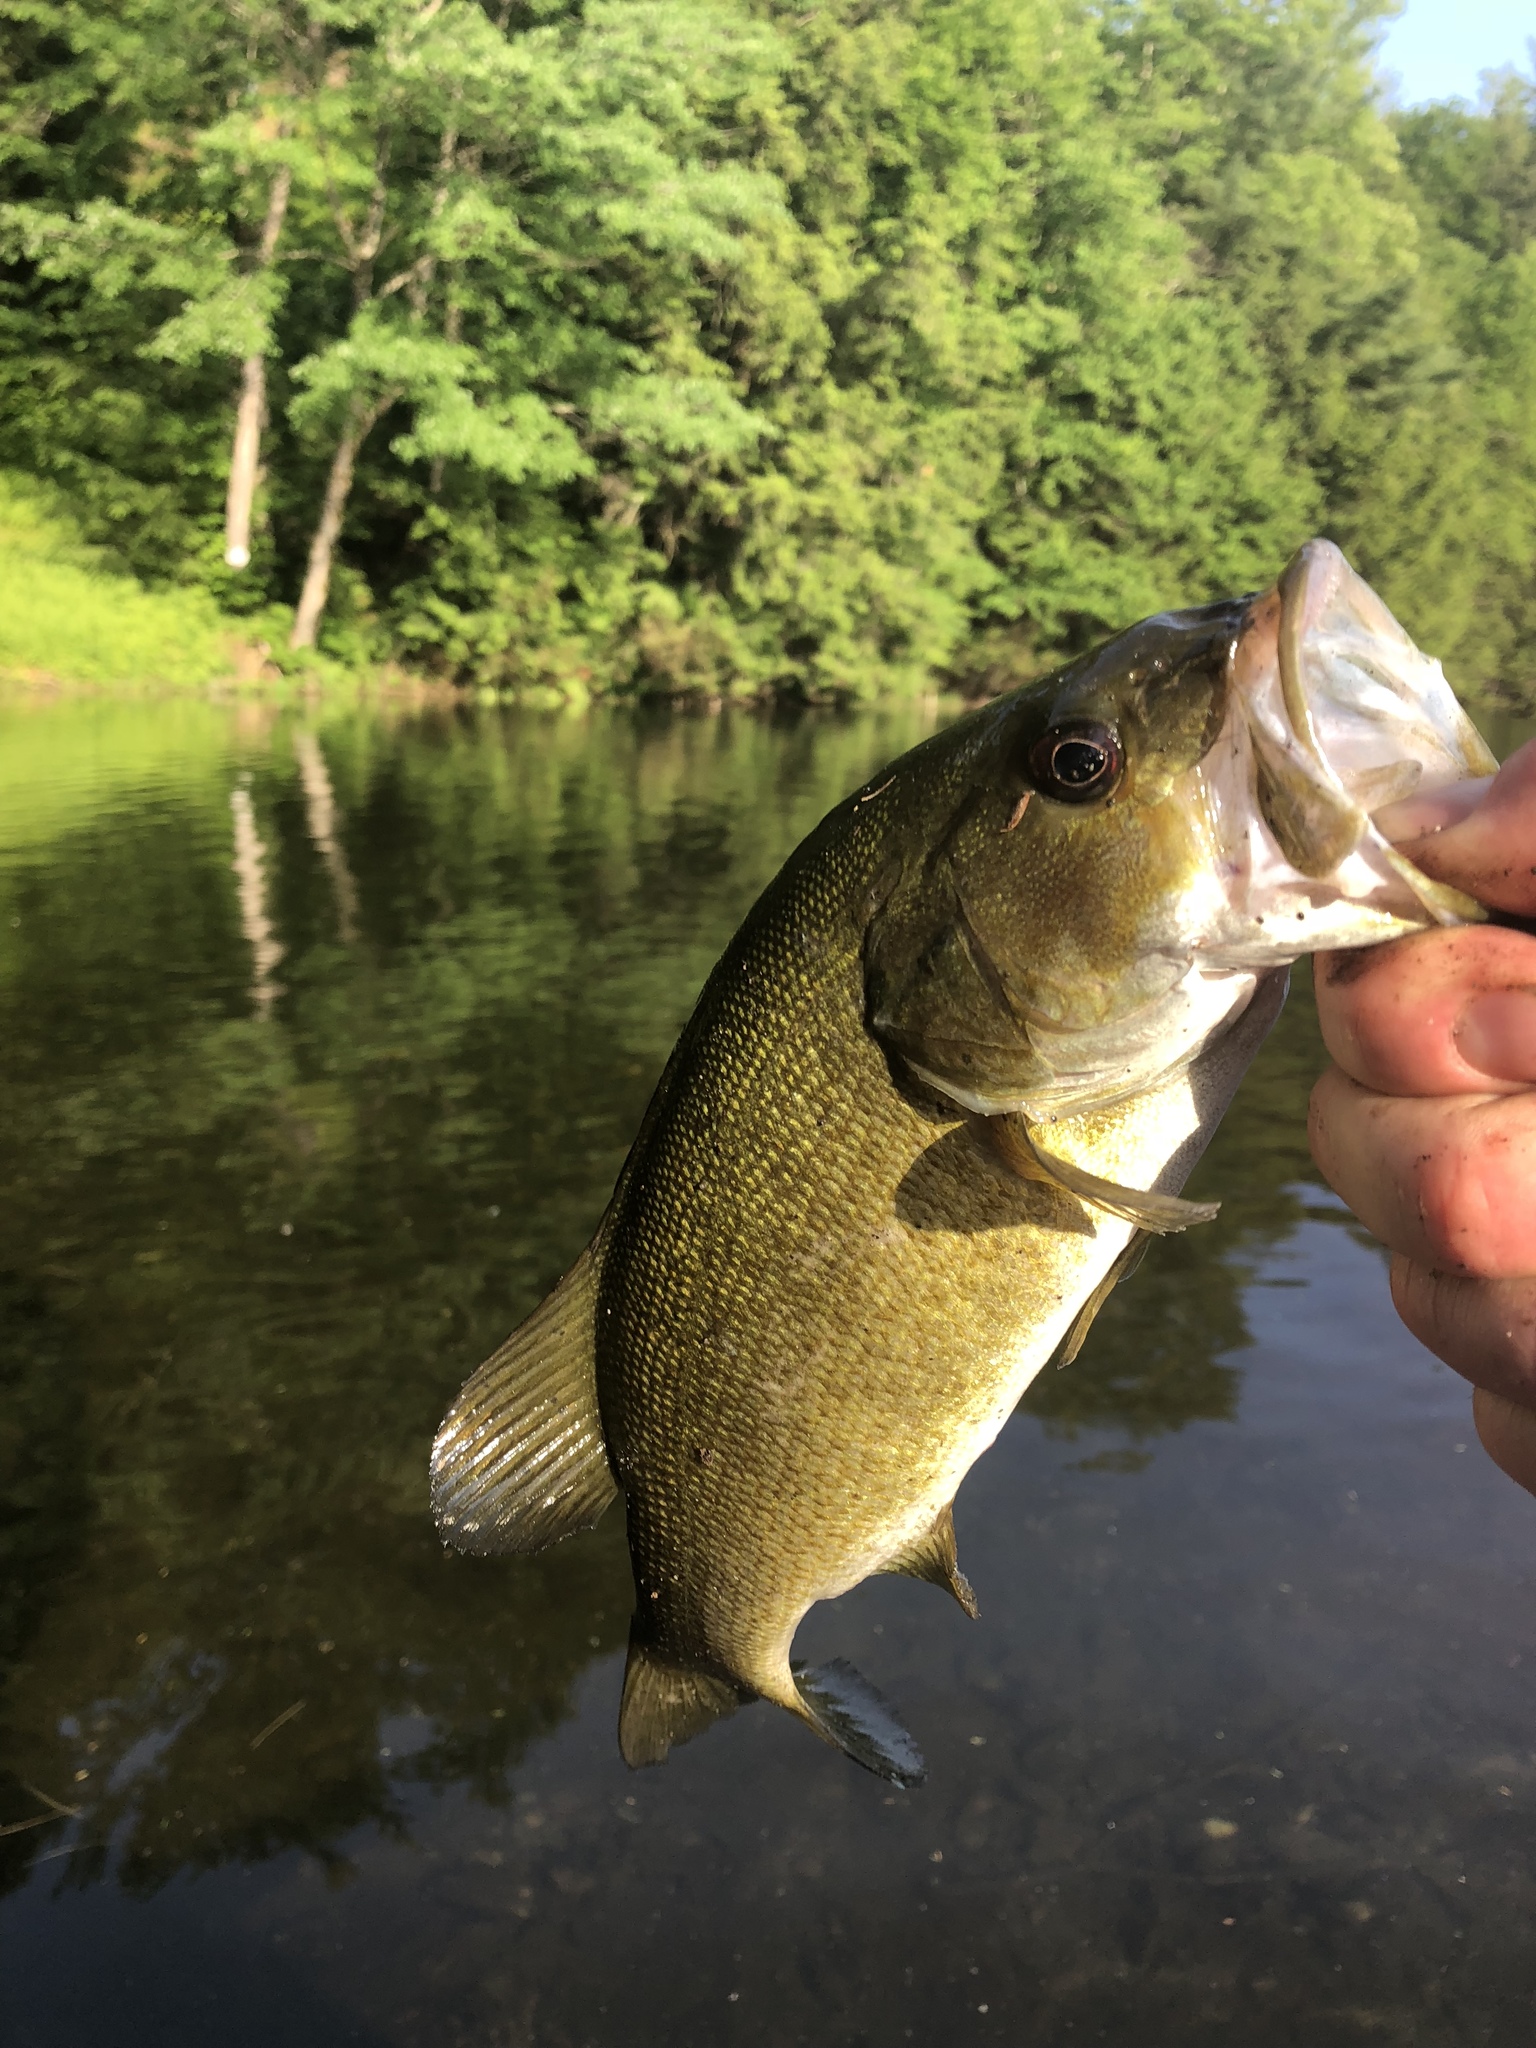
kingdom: Animalia
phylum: Chordata
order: Perciformes
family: Centrarchidae
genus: Micropterus
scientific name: Micropterus dolomieu
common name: Smallmouth bass
